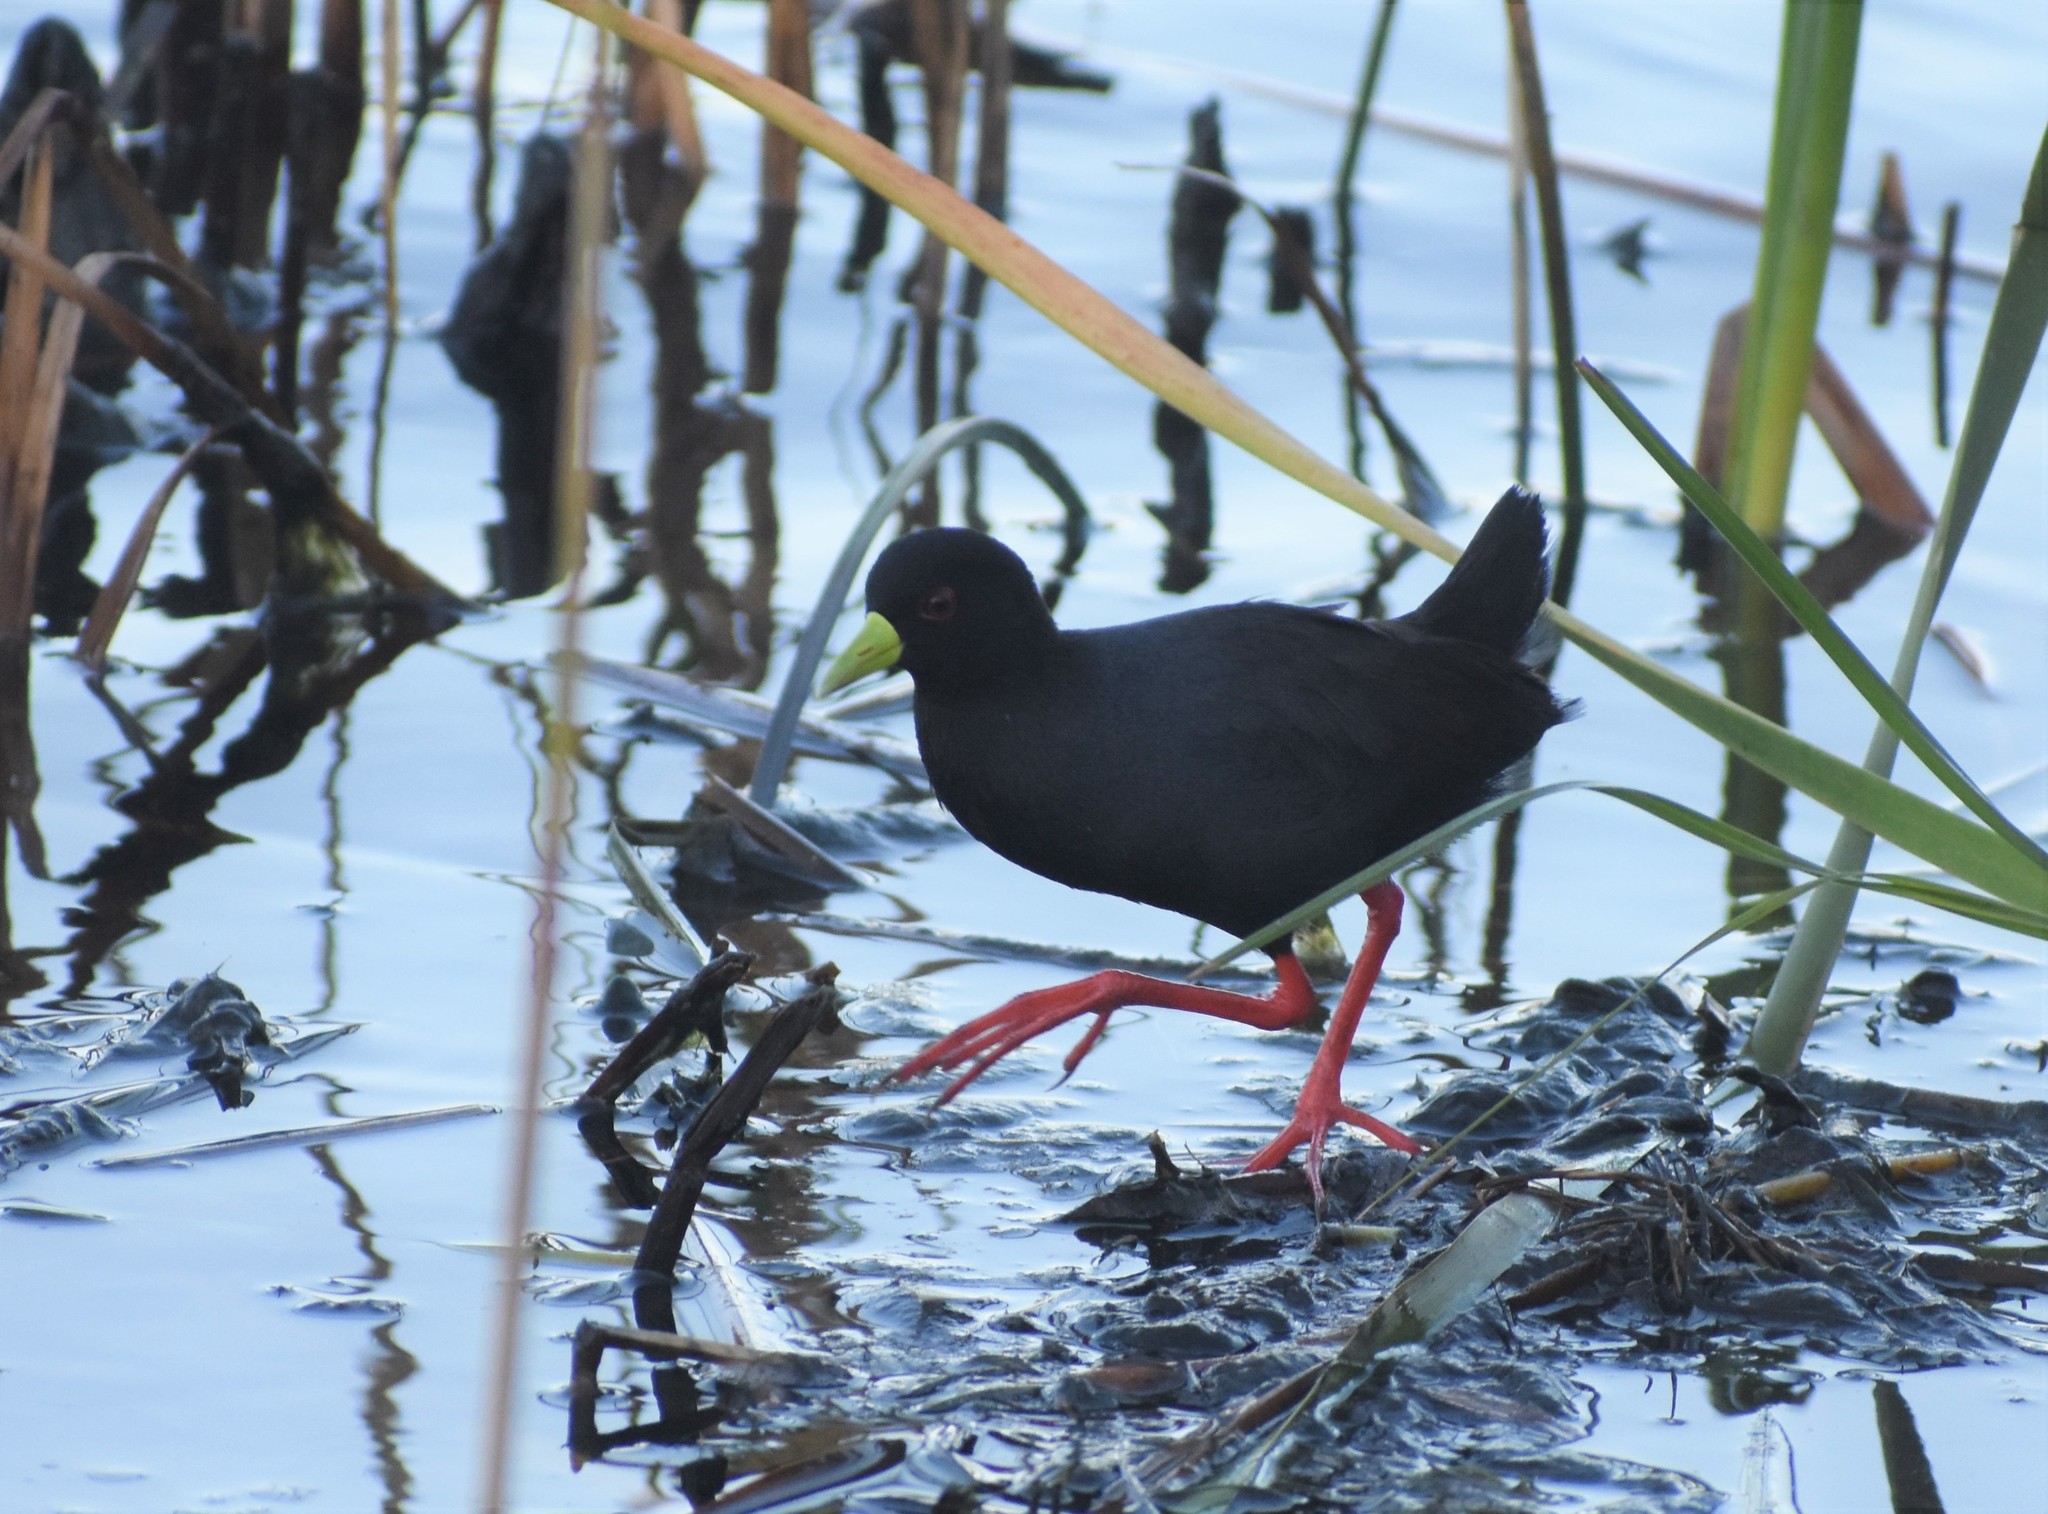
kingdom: Animalia
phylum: Chordata
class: Aves
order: Gruiformes
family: Rallidae
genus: Amaurornis
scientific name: Amaurornis flavirostra
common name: Black crake
